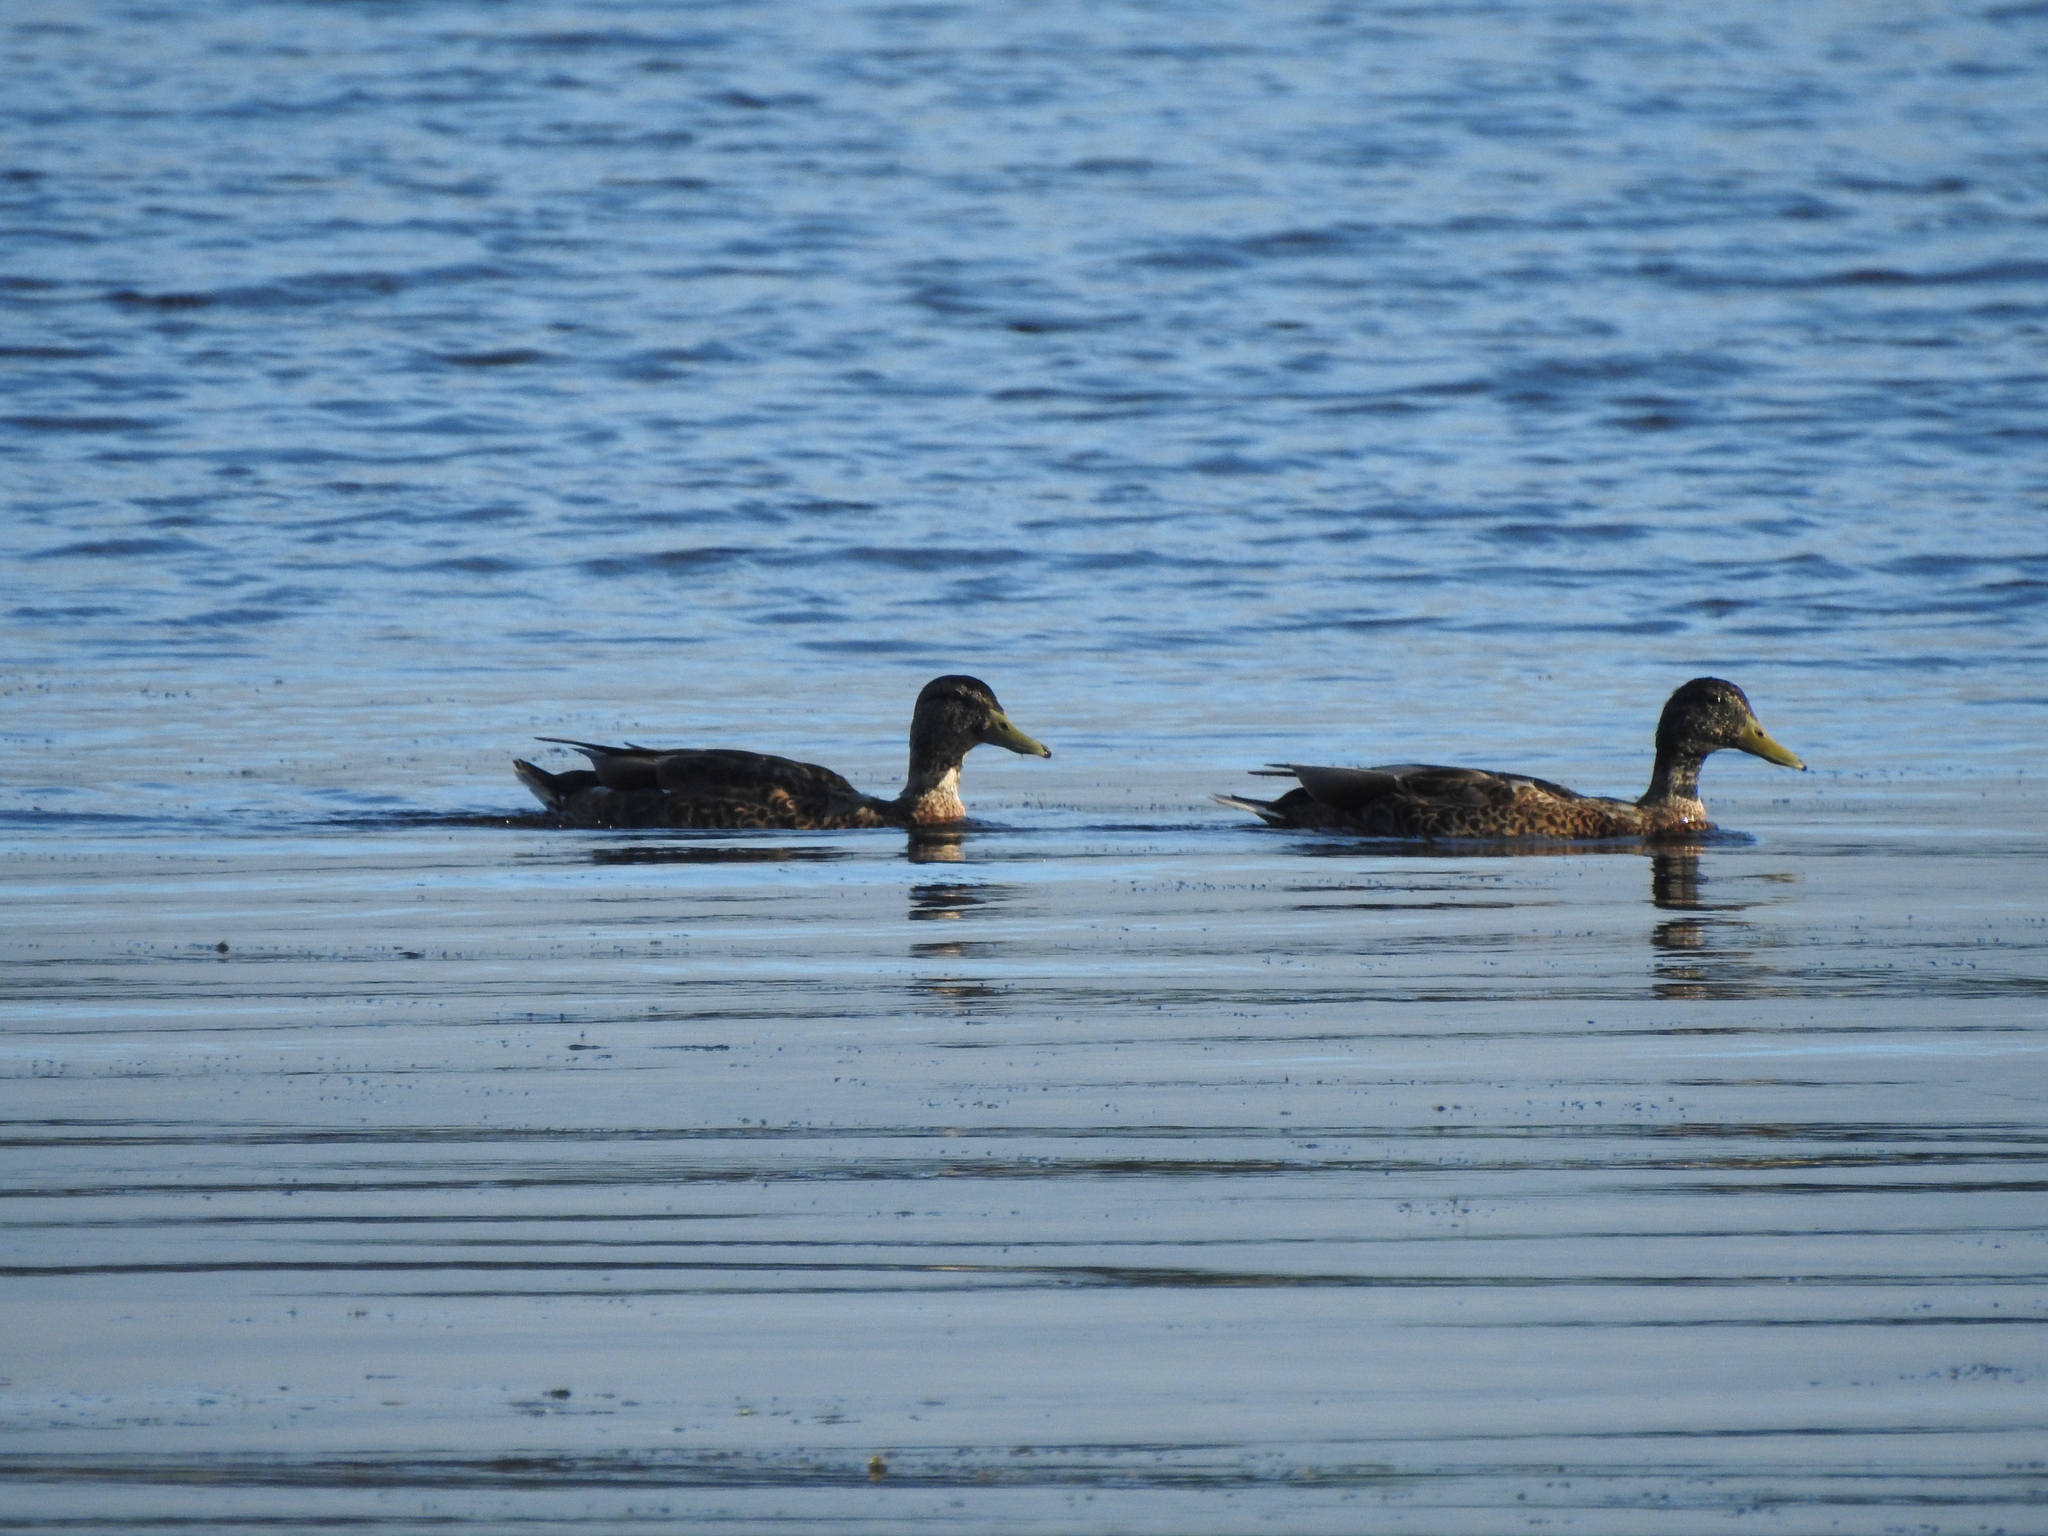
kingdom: Animalia
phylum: Chordata
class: Aves
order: Anseriformes
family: Anatidae
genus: Anas
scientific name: Anas platyrhynchos
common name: Mallard
